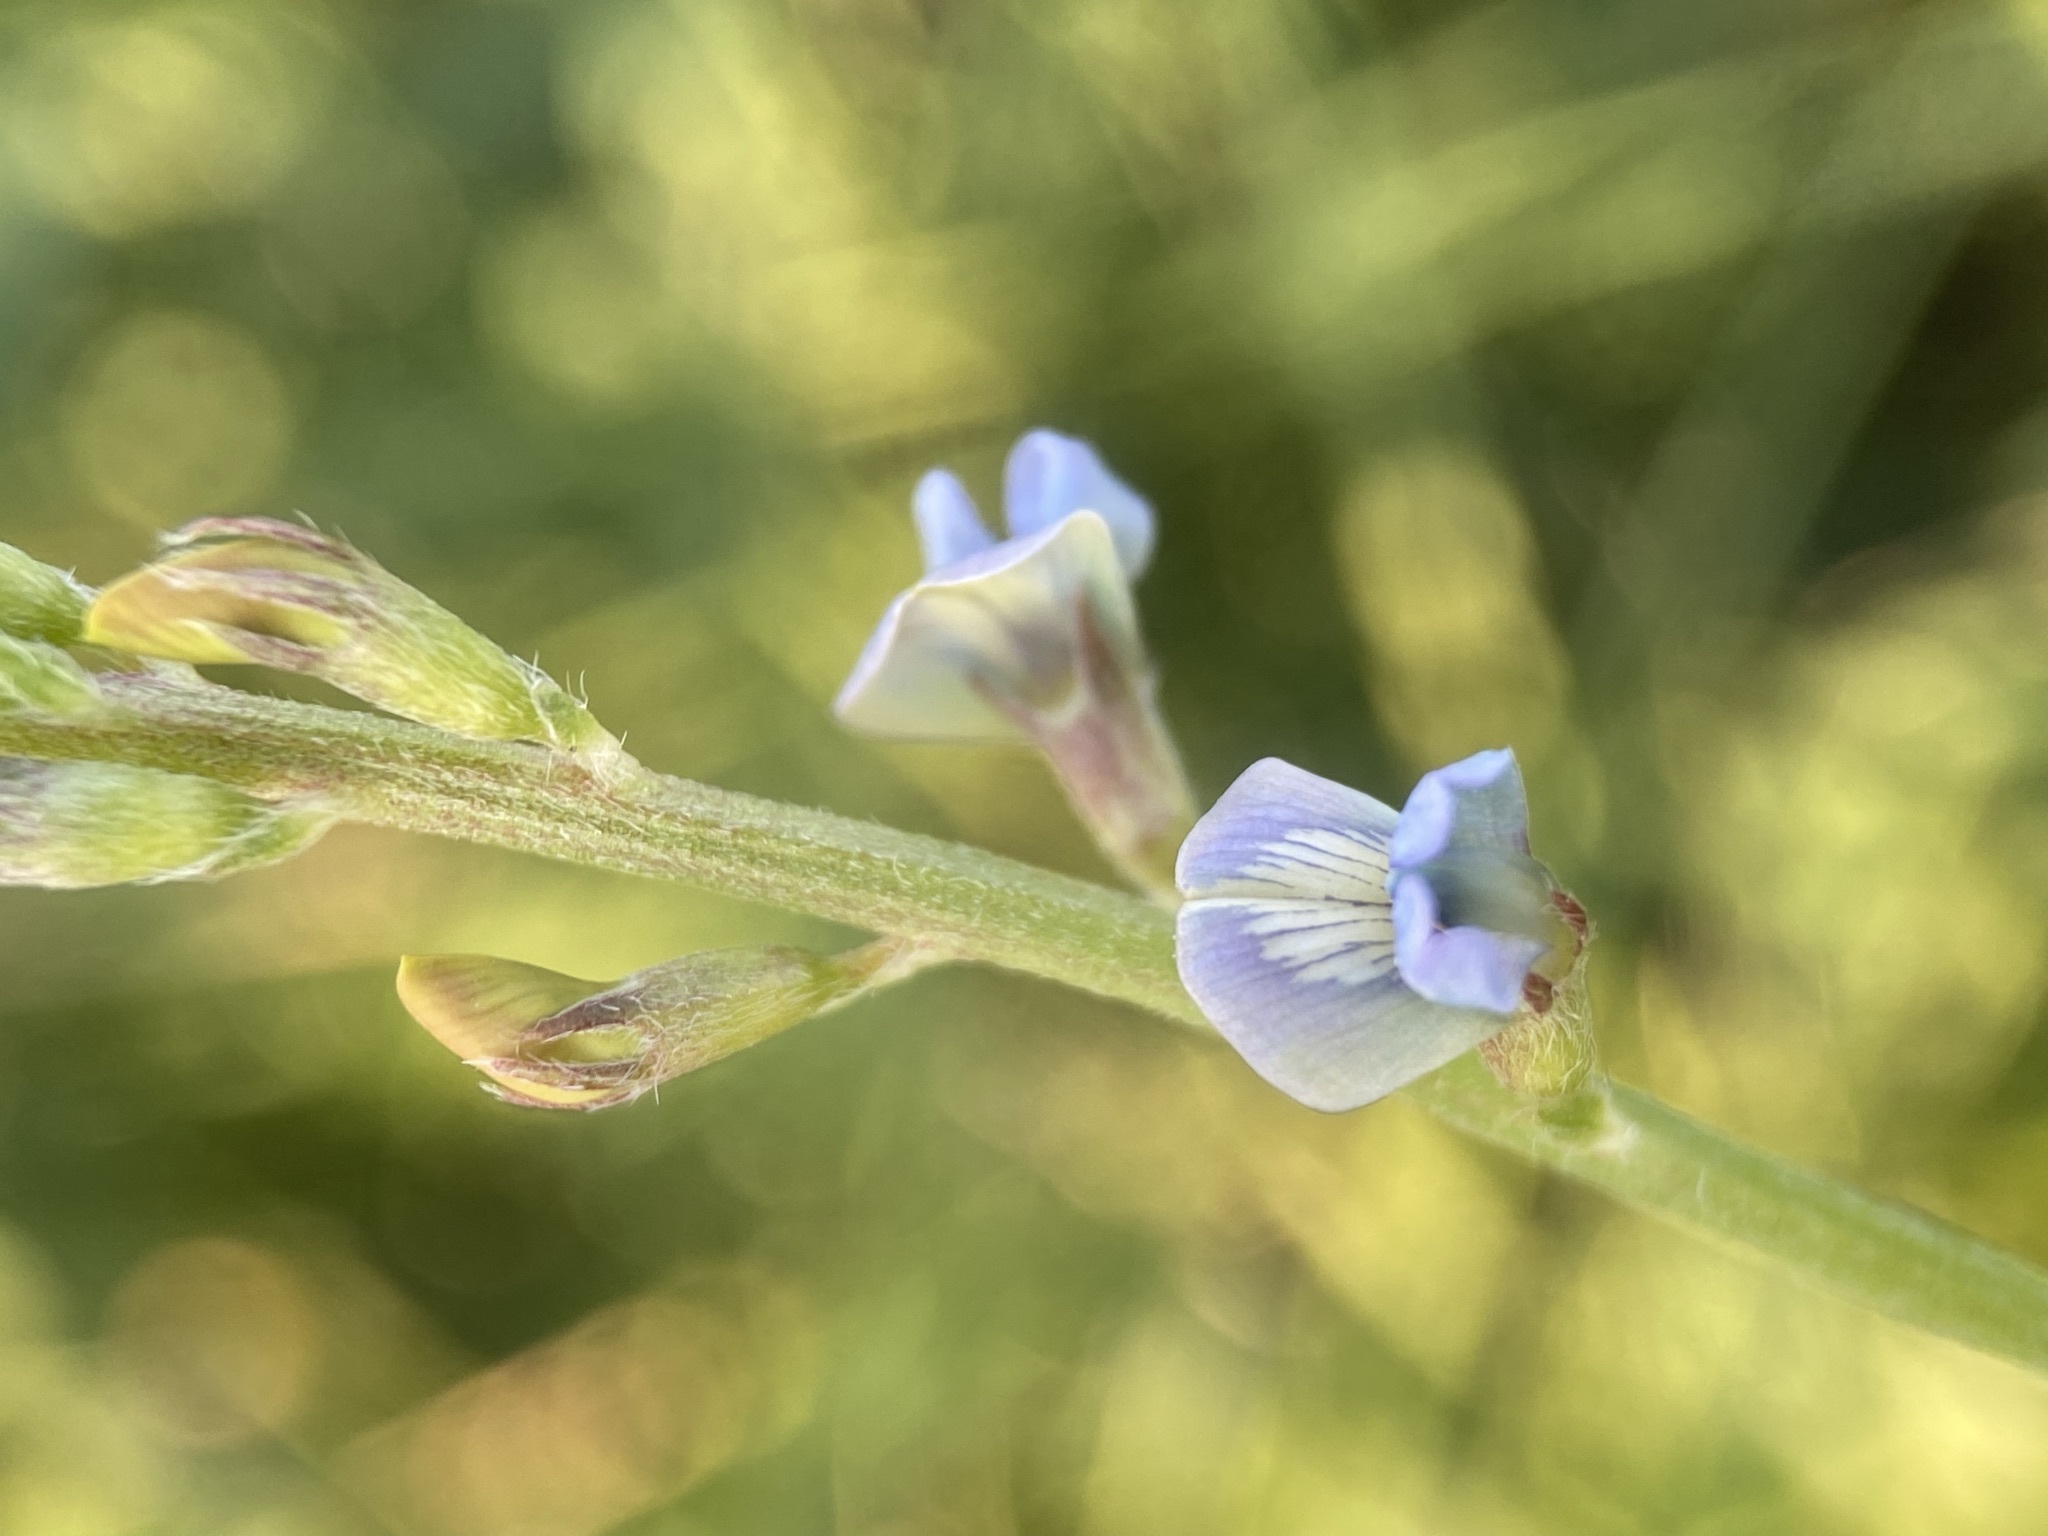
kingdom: Plantae
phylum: Tracheophyta
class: Magnoliopsida
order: Fabales
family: Fabaceae
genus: Oxytropis
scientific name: Oxytropis glabra
